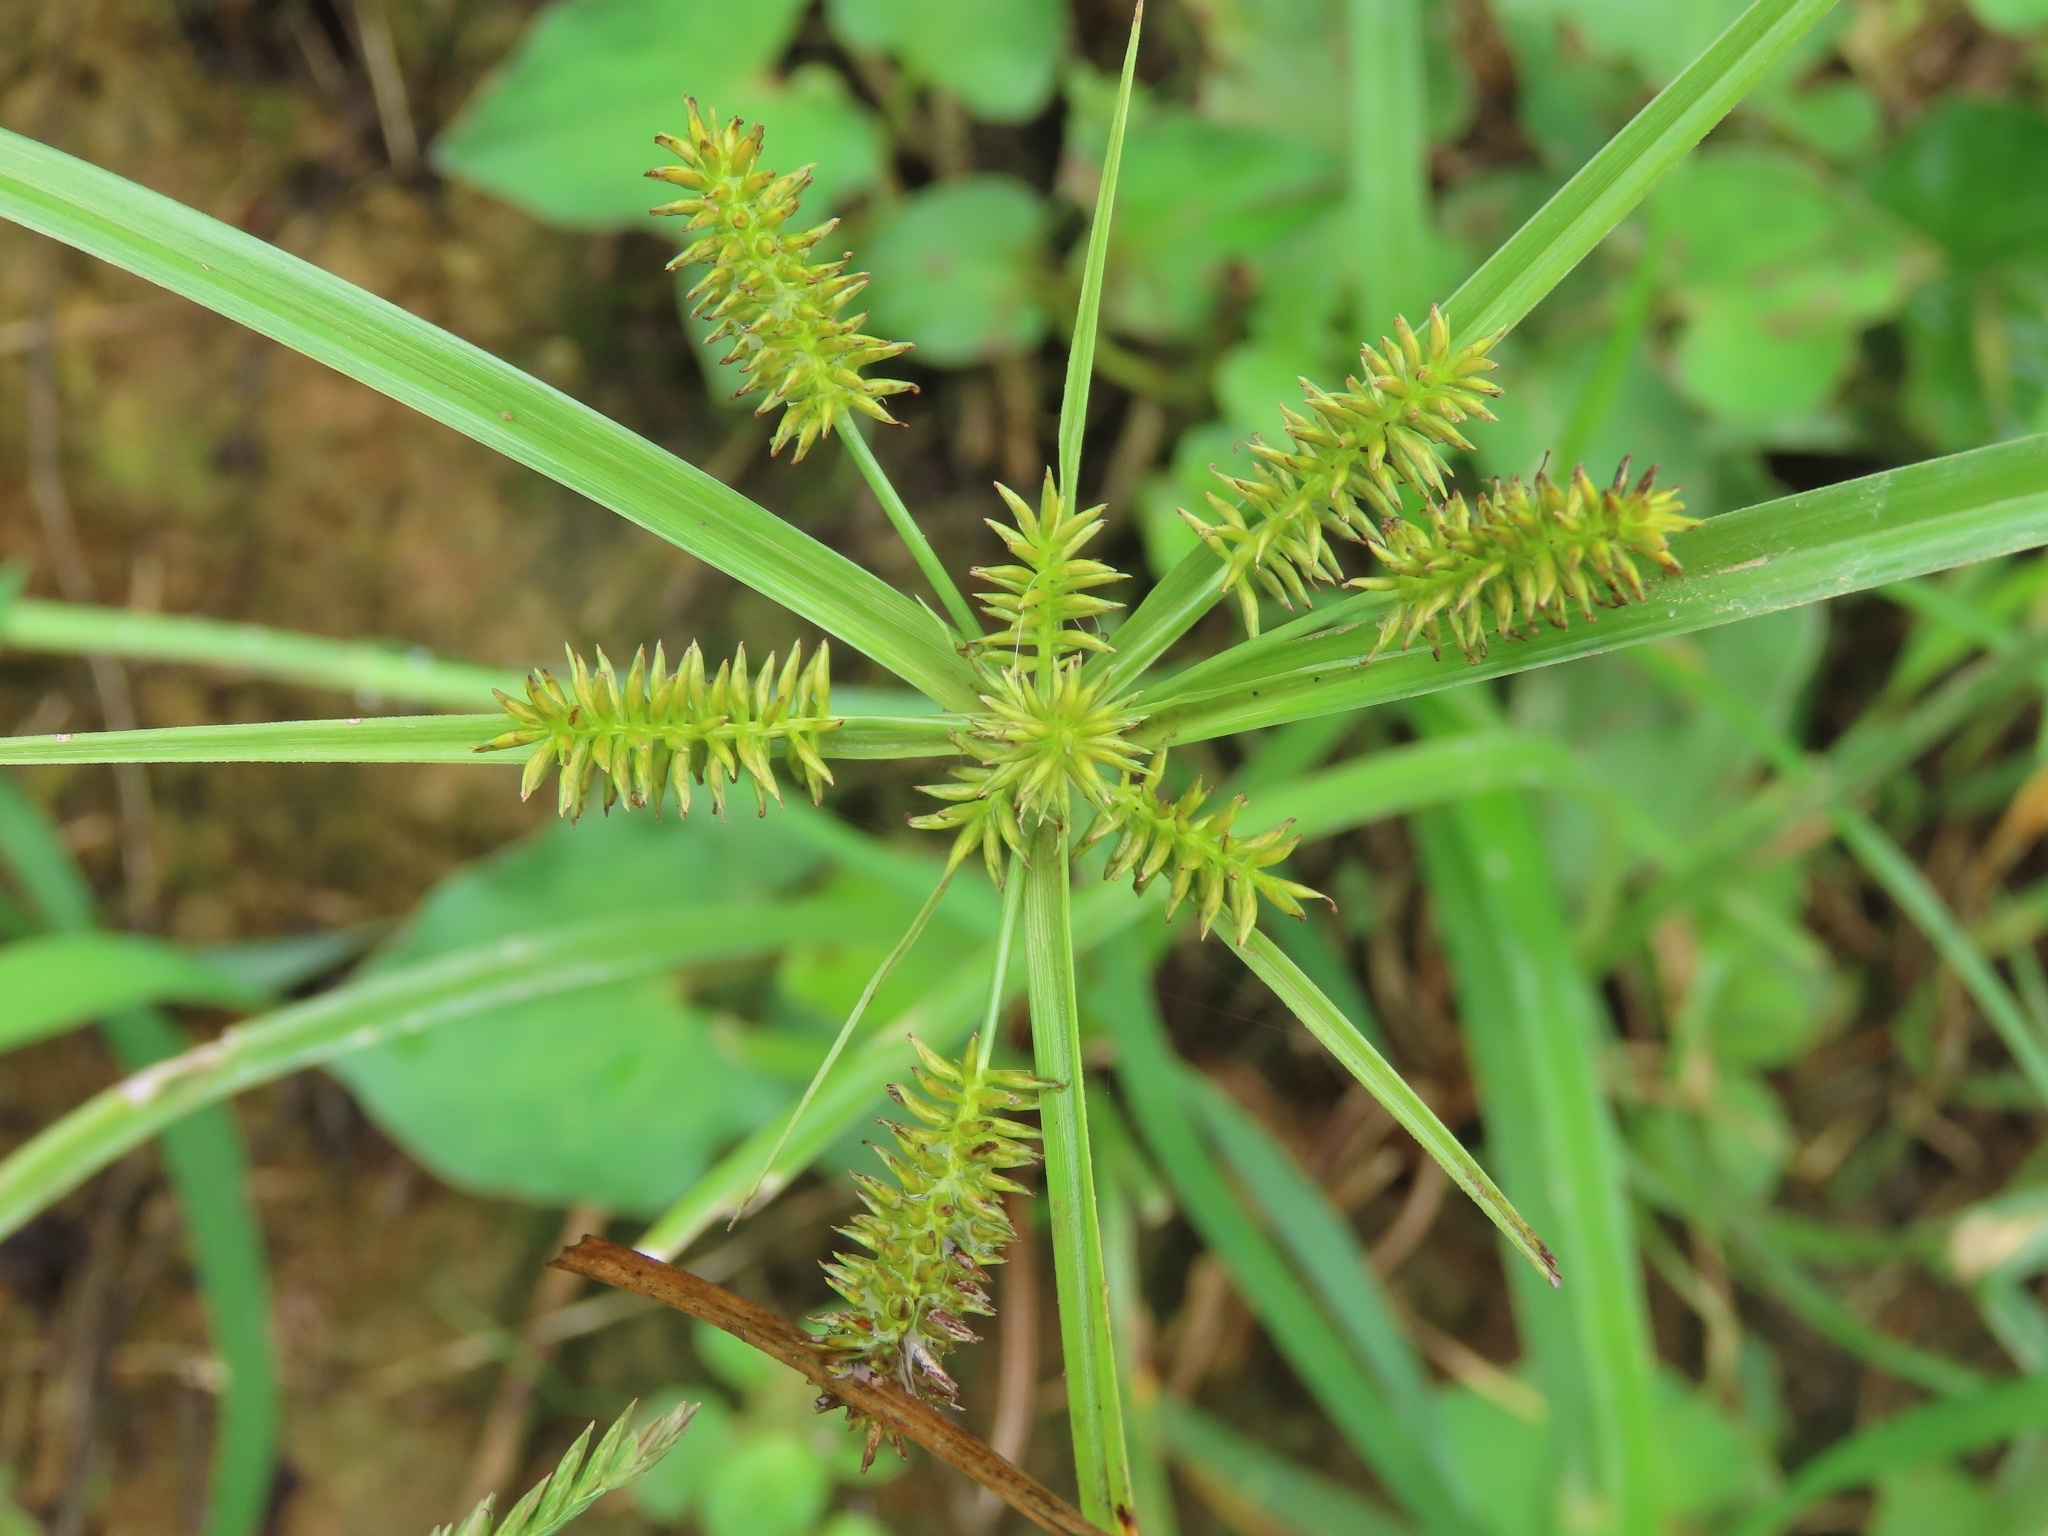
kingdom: Plantae
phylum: Tracheophyta
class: Liliopsida
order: Poales
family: Cyperaceae
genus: Cyperus
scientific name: Cyperus cyperoides
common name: Pacific island flat sedge
